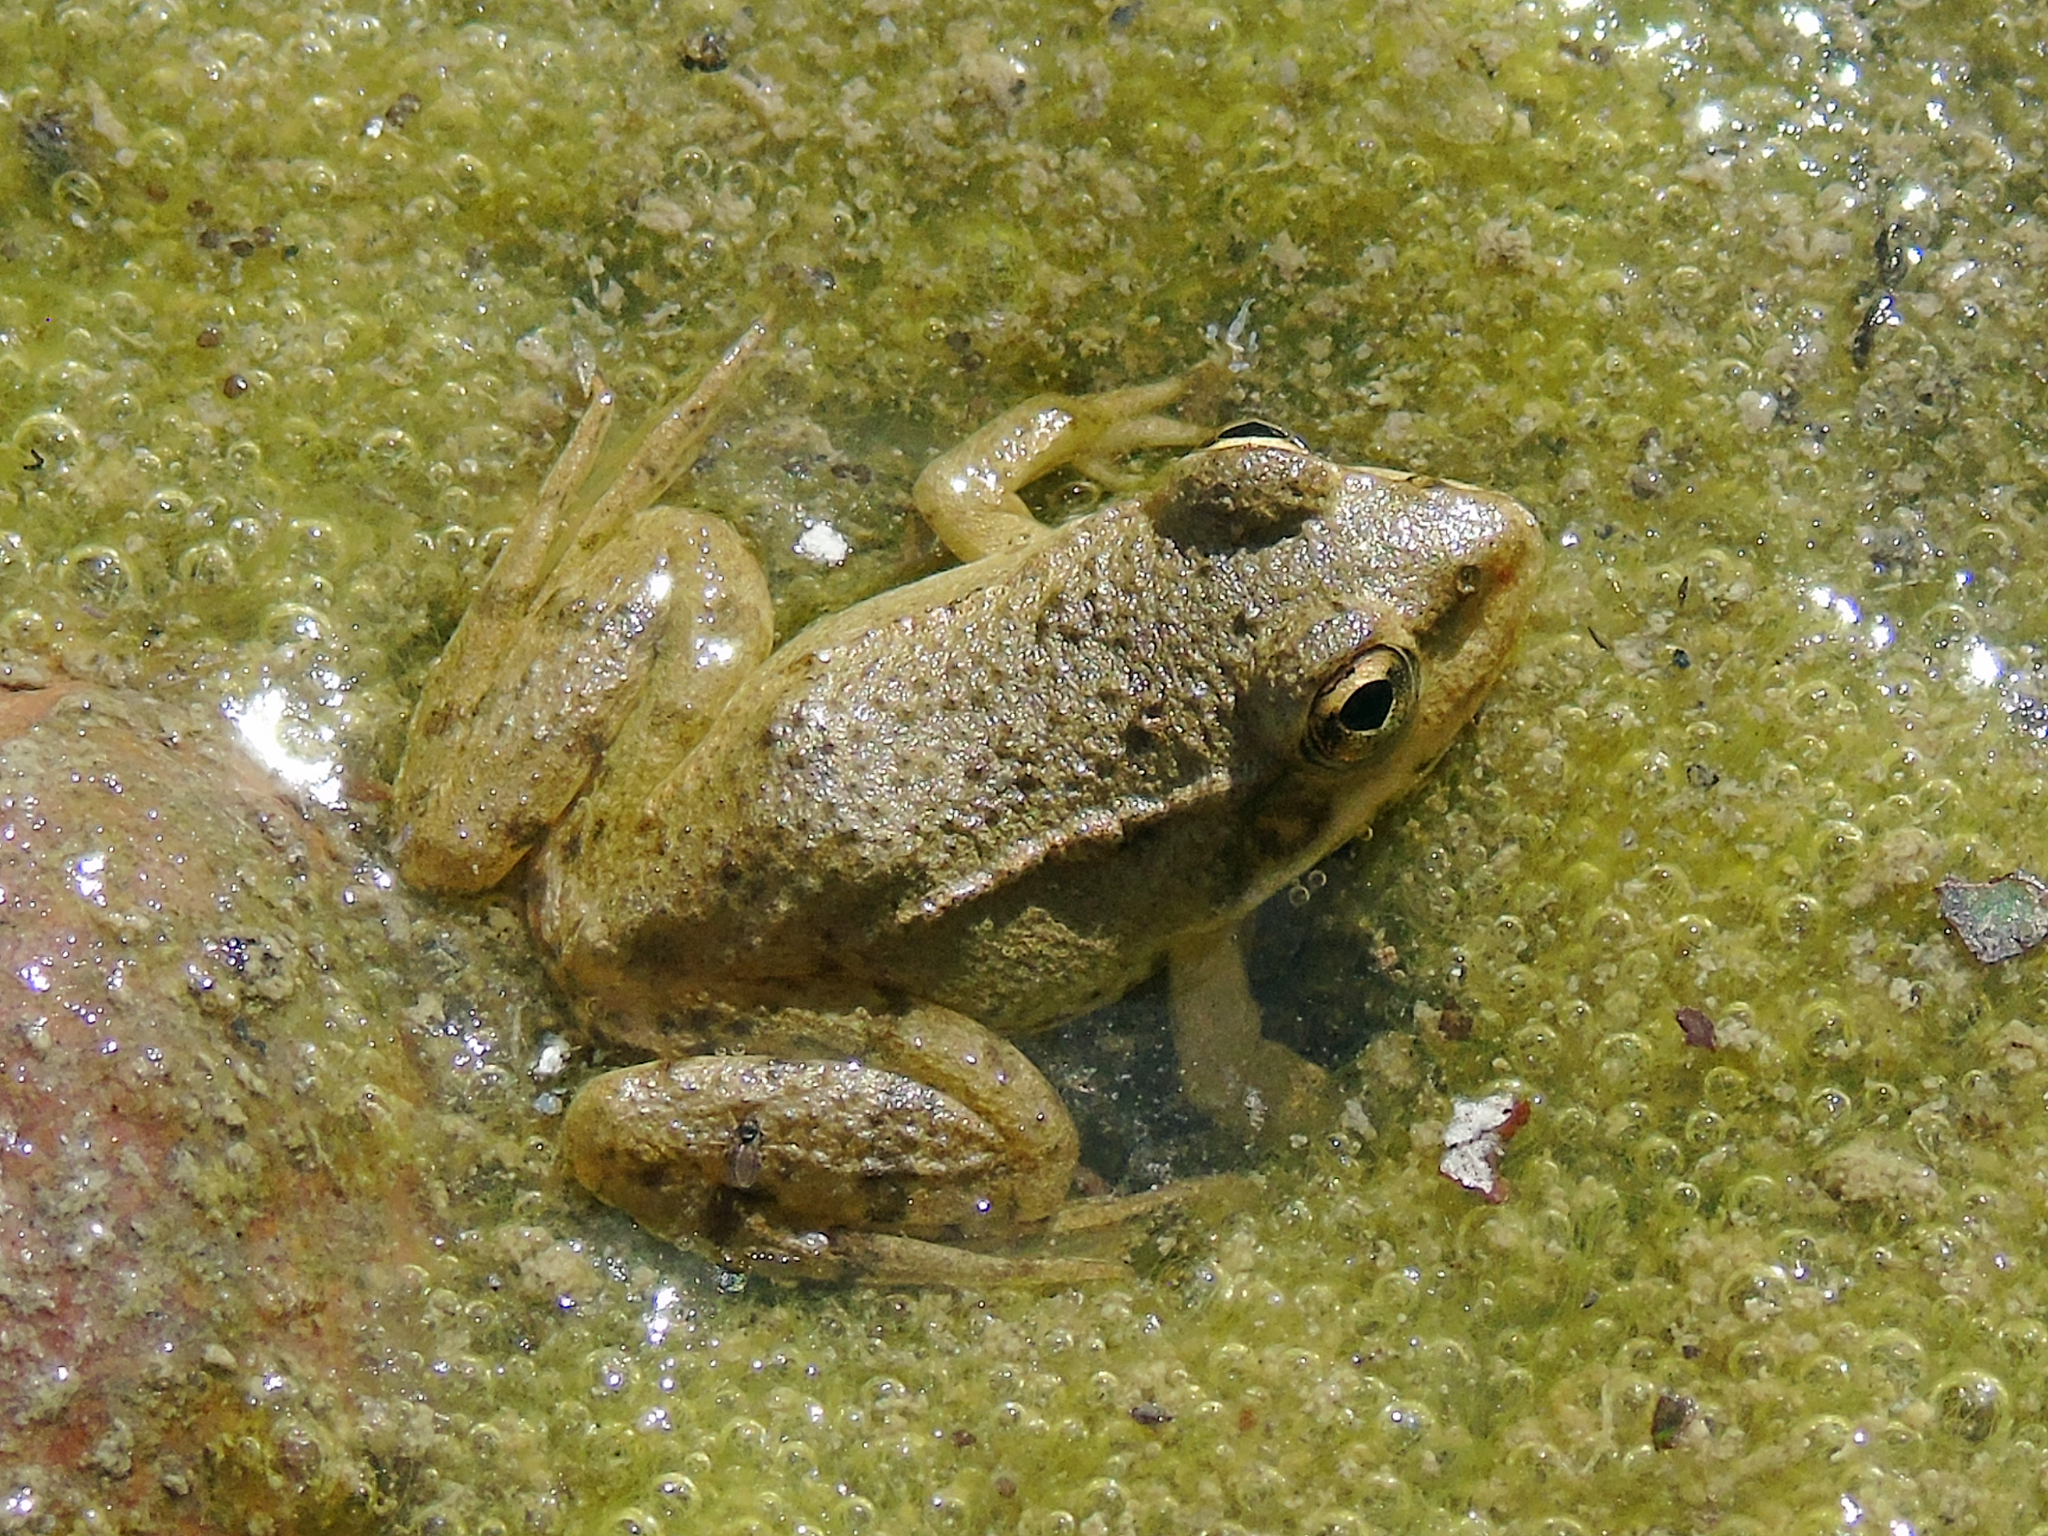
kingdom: Animalia
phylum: Chordata
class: Amphibia
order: Anura
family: Ranidae
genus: Pelophylax
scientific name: Pelophylax ridibundus
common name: Marsh frog
